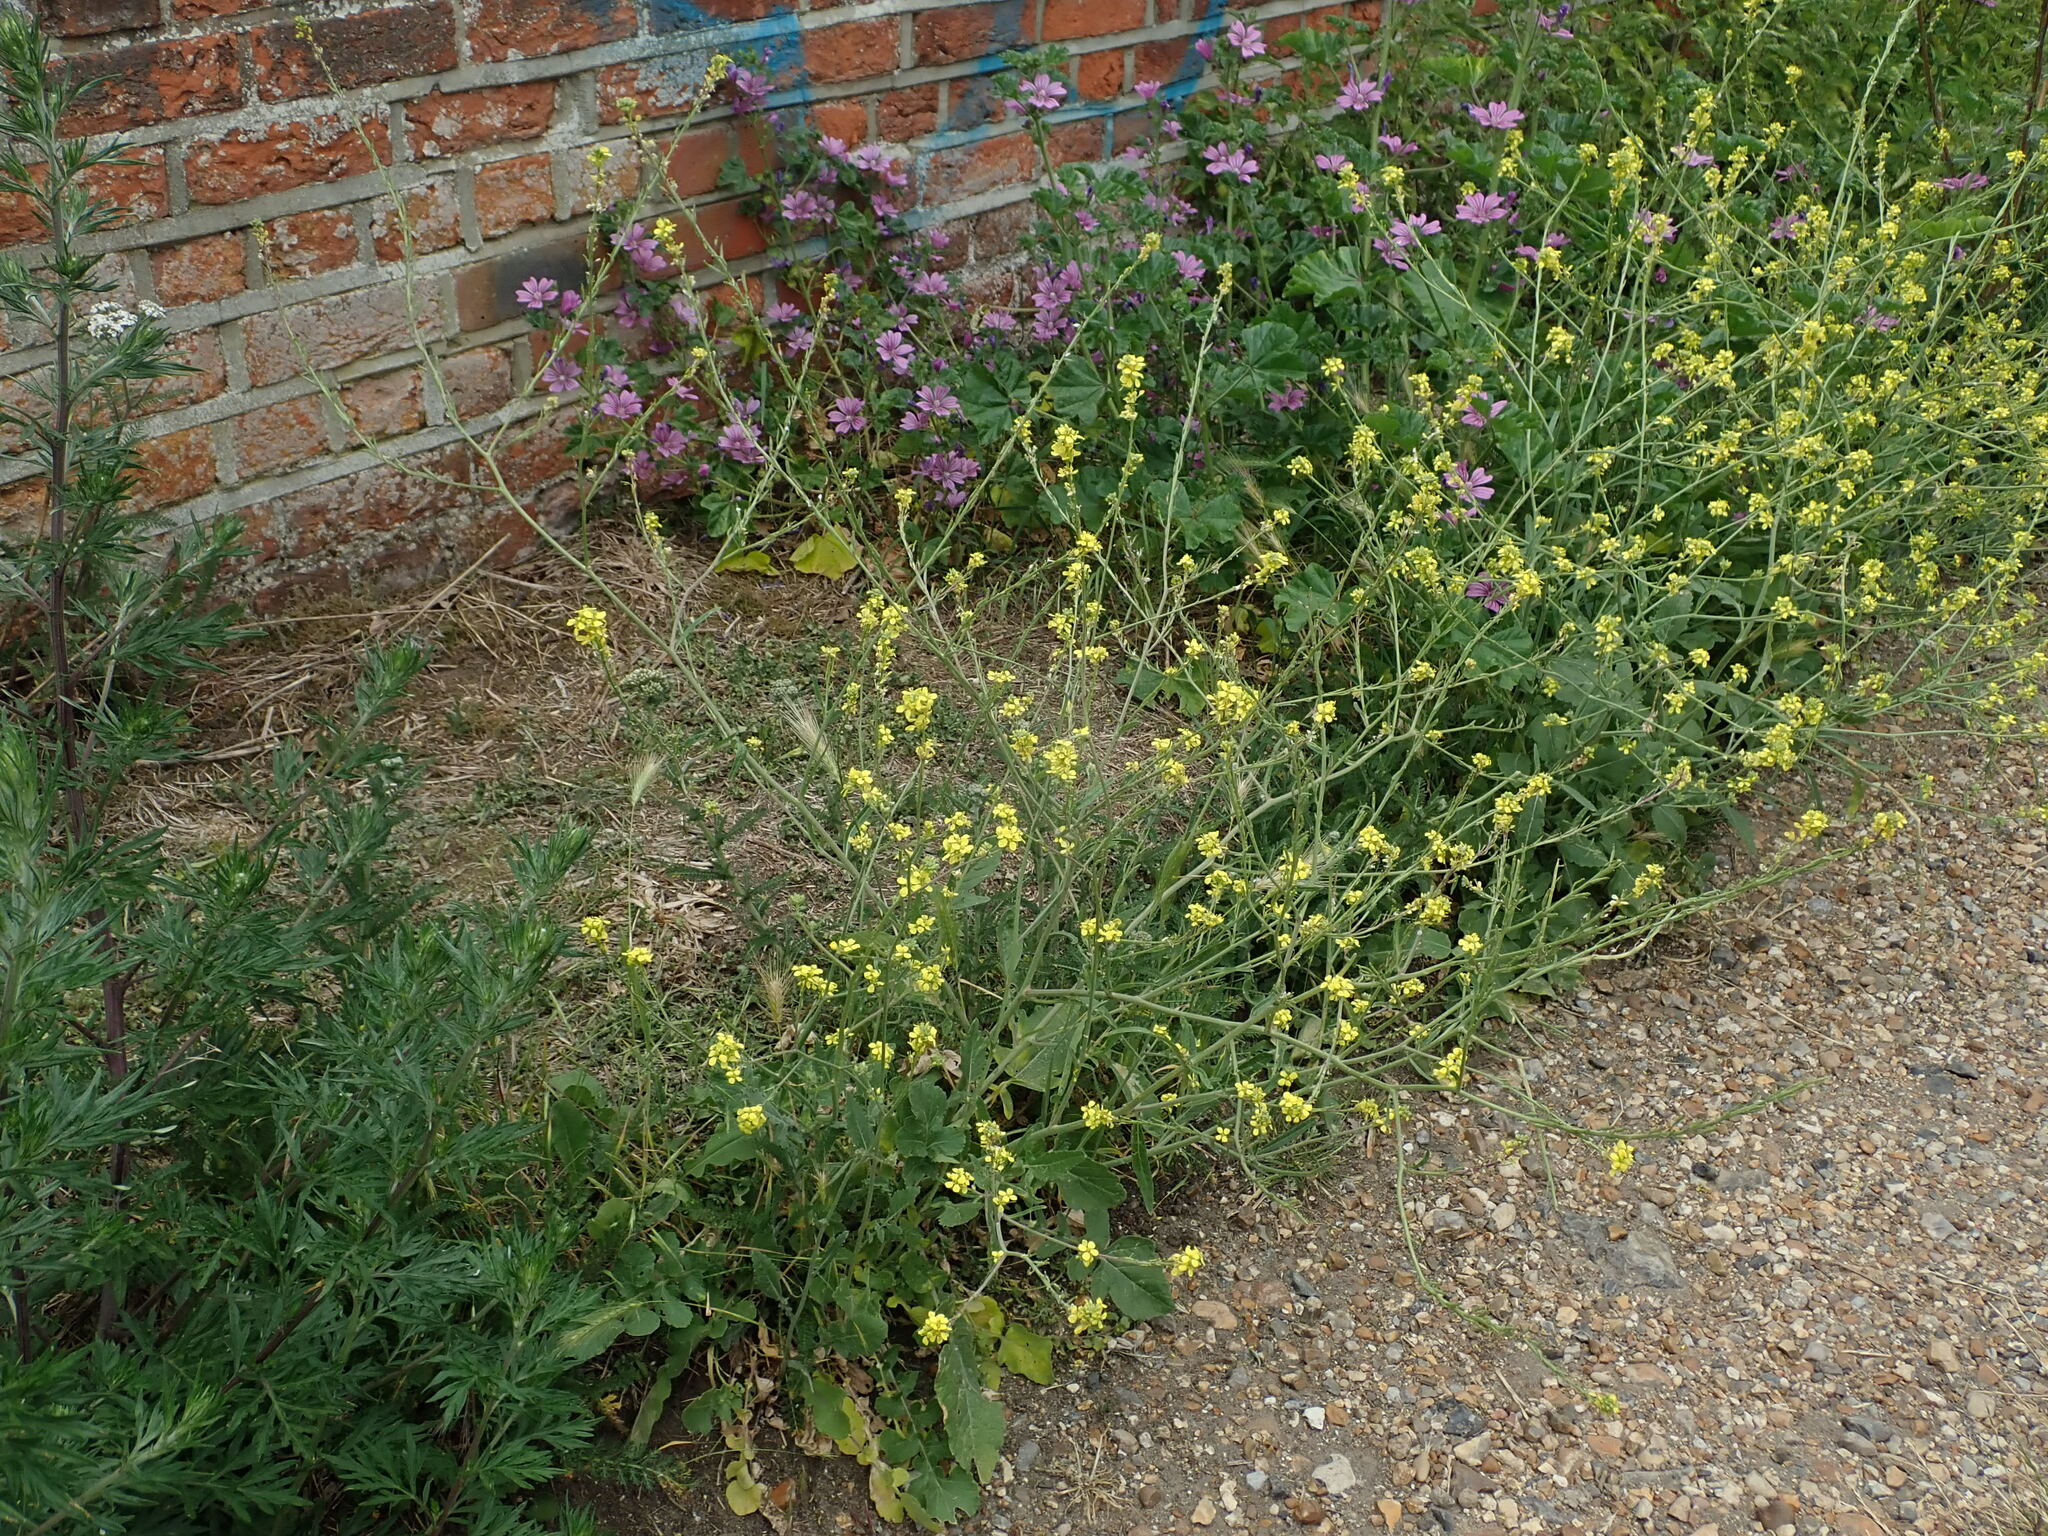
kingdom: Plantae
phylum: Tracheophyta
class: Magnoliopsida
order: Brassicales
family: Brassicaceae
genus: Hirschfeldia
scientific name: Hirschfeldia incana
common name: Hoary mustard
